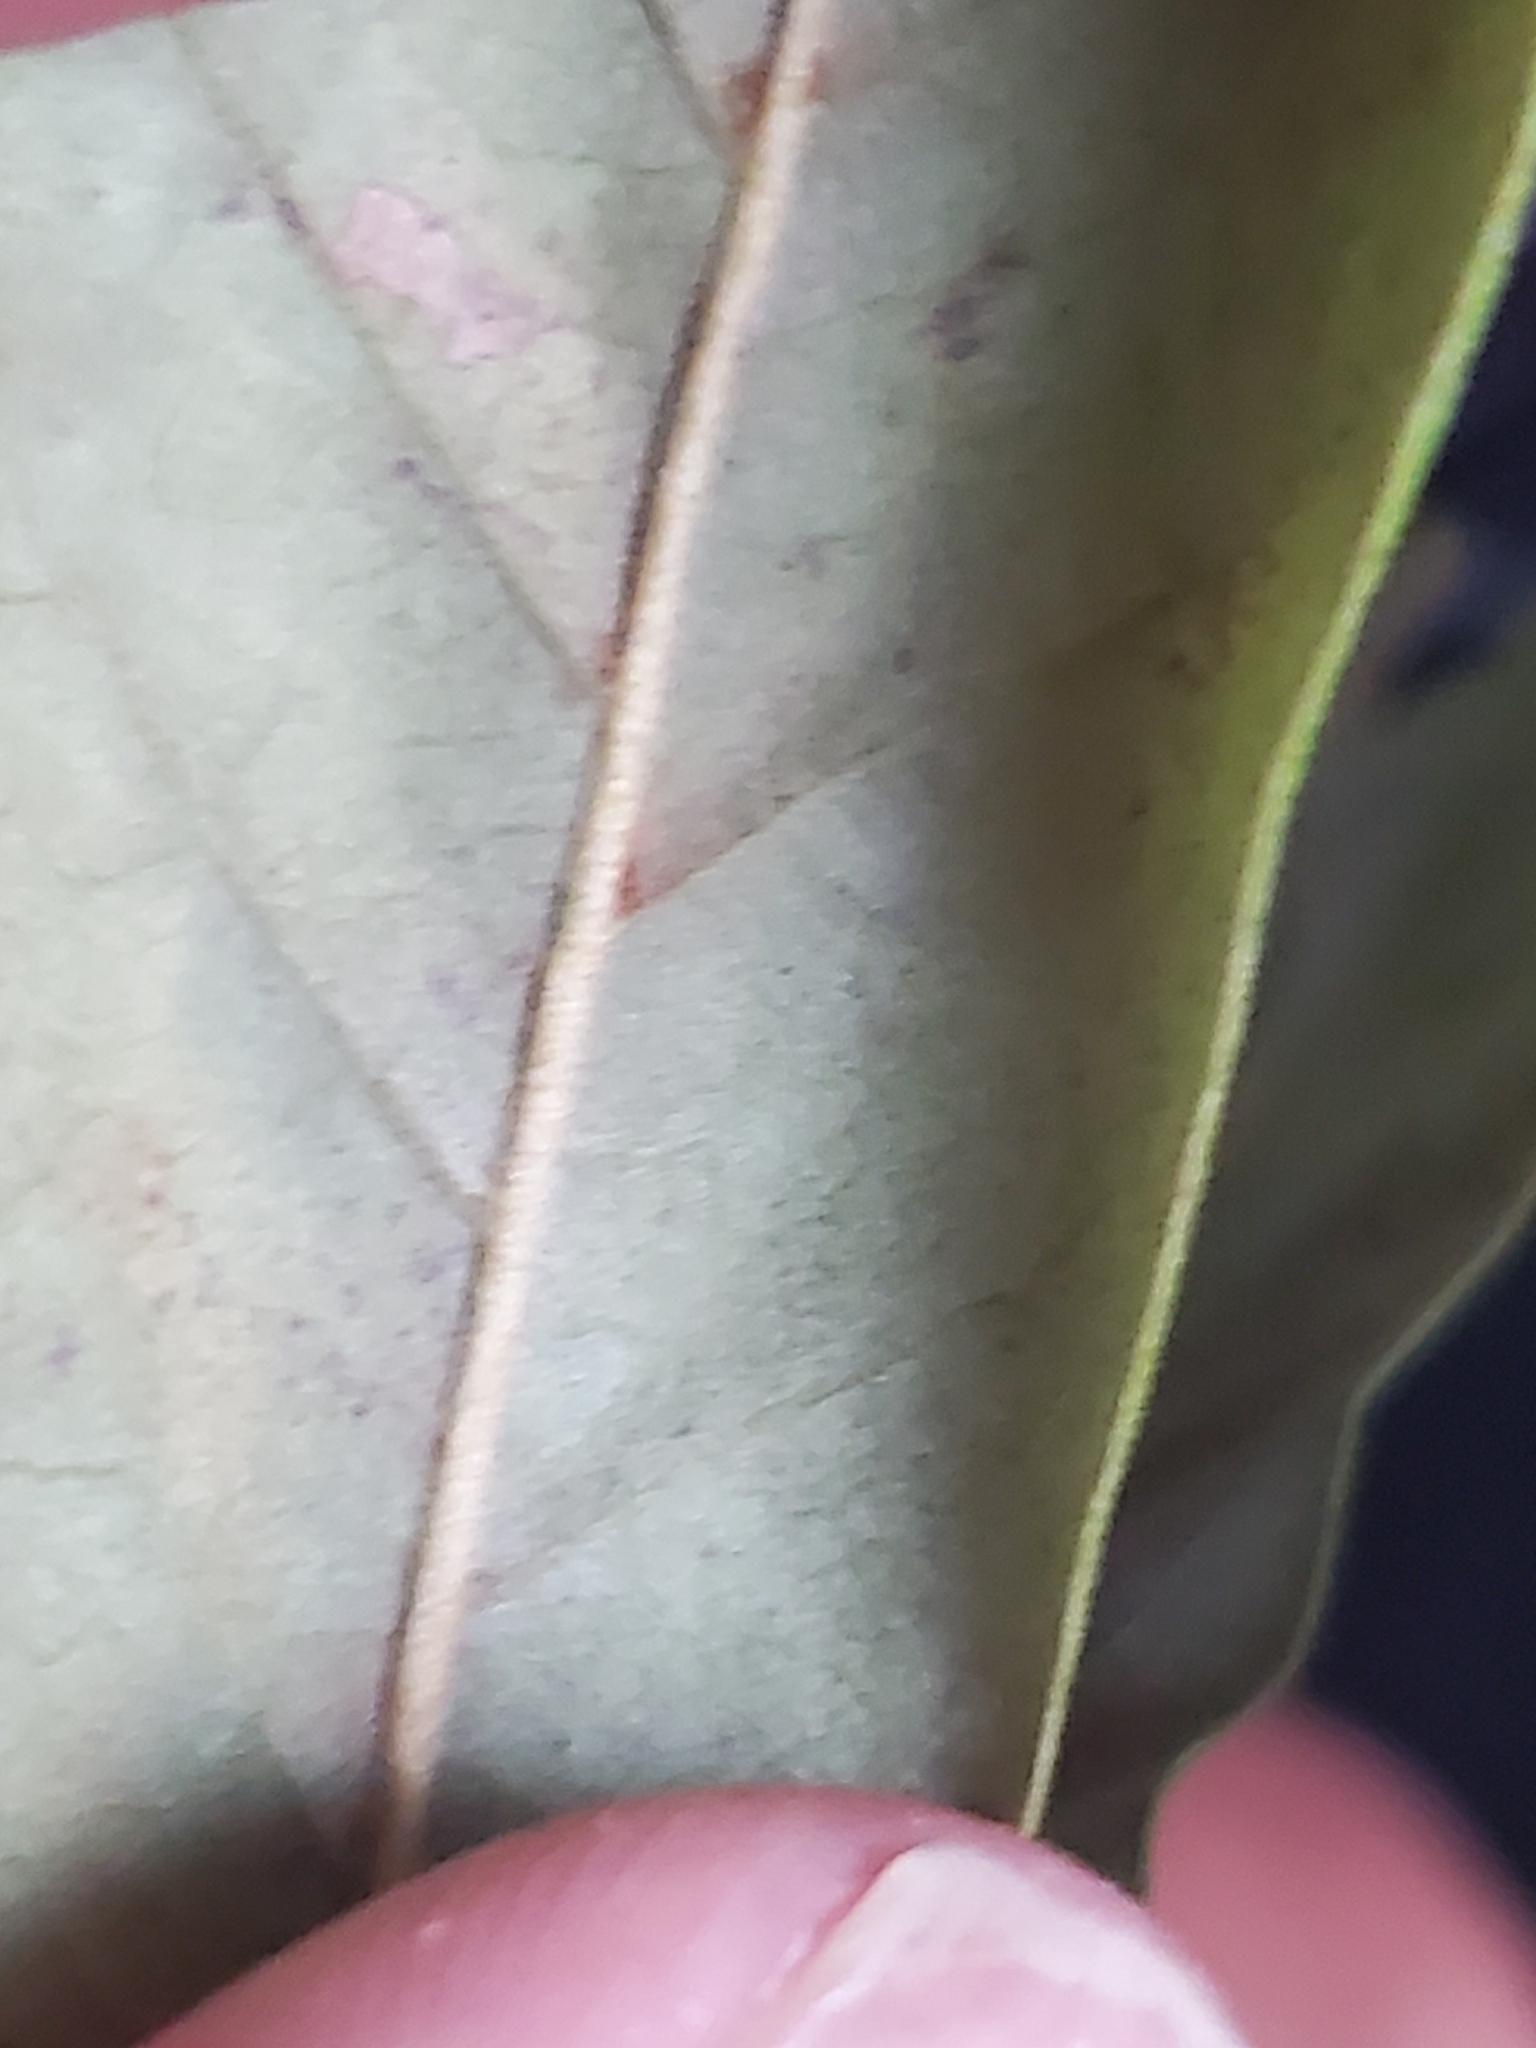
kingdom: Plantae
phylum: Tracheophyta
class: Magnoliopsida
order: Fagales
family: Fagaceae
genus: Quercus
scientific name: Quercus incana
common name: Bluejack oak
